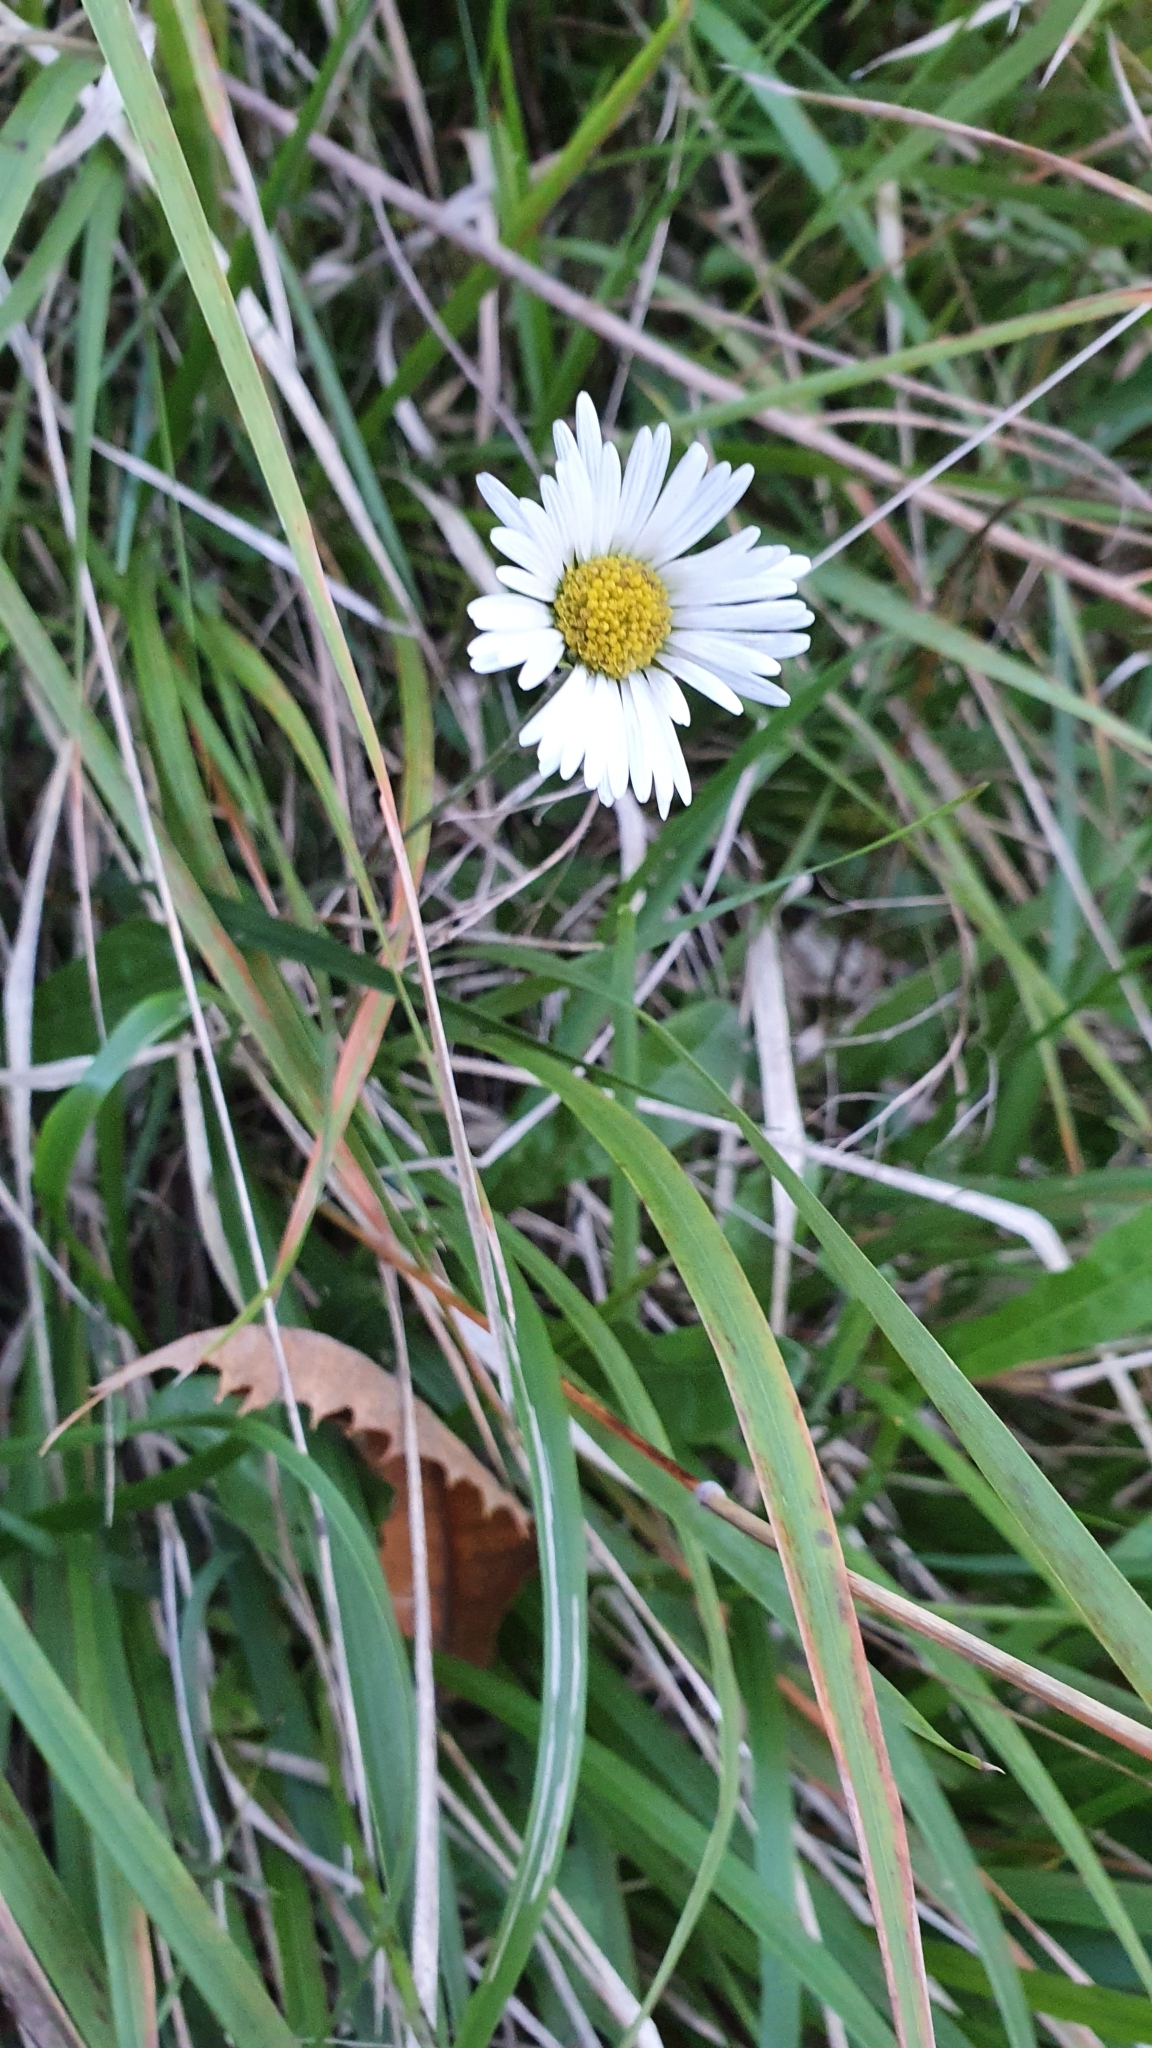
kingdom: Plantae
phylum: Tracheophyta
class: Magnoliopsida
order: Asterales
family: Asteraceae
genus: Bellis
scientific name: Bellis perennis
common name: Lawndaisy
